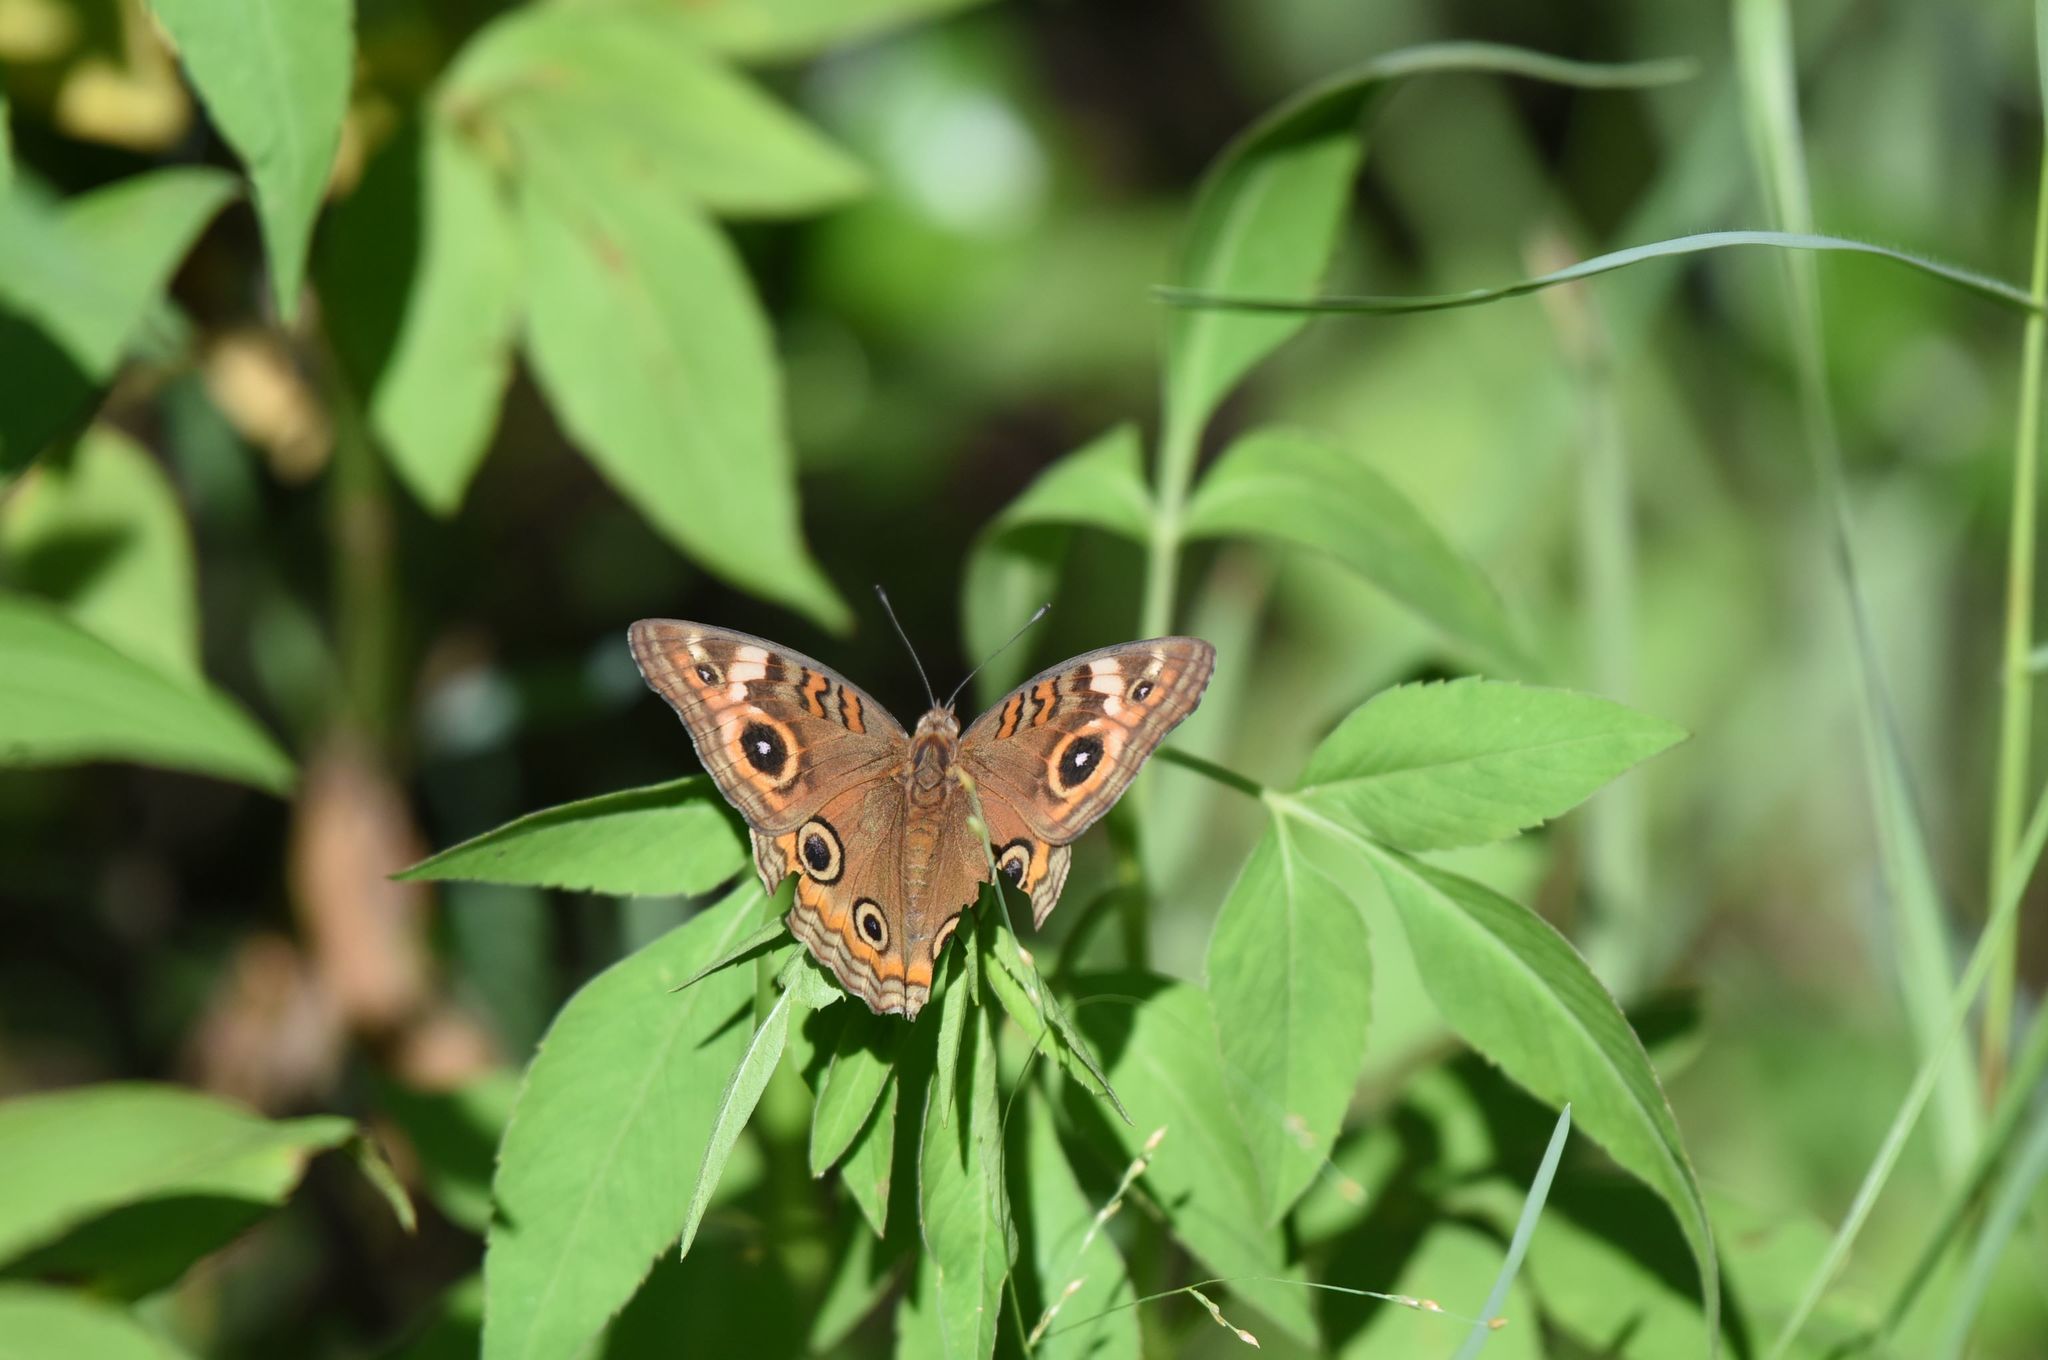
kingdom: Animalia
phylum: Arthropoda
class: Insecta
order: Lepidoptera
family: Nymphalidae
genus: Junonia
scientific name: Junonia neildi
